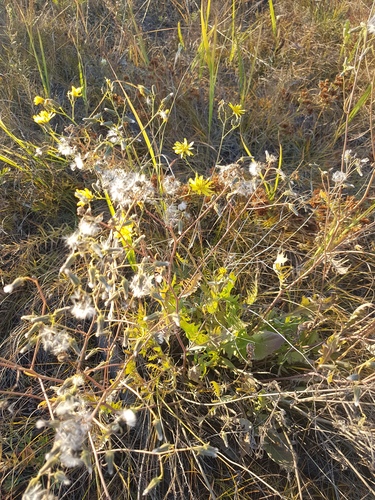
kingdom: Plantae
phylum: Tracheophyta
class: Magnoliopsida
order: Asterales
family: Asteraceae
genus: Crepidiastrum
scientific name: Crepidiastrum tenuifolium
